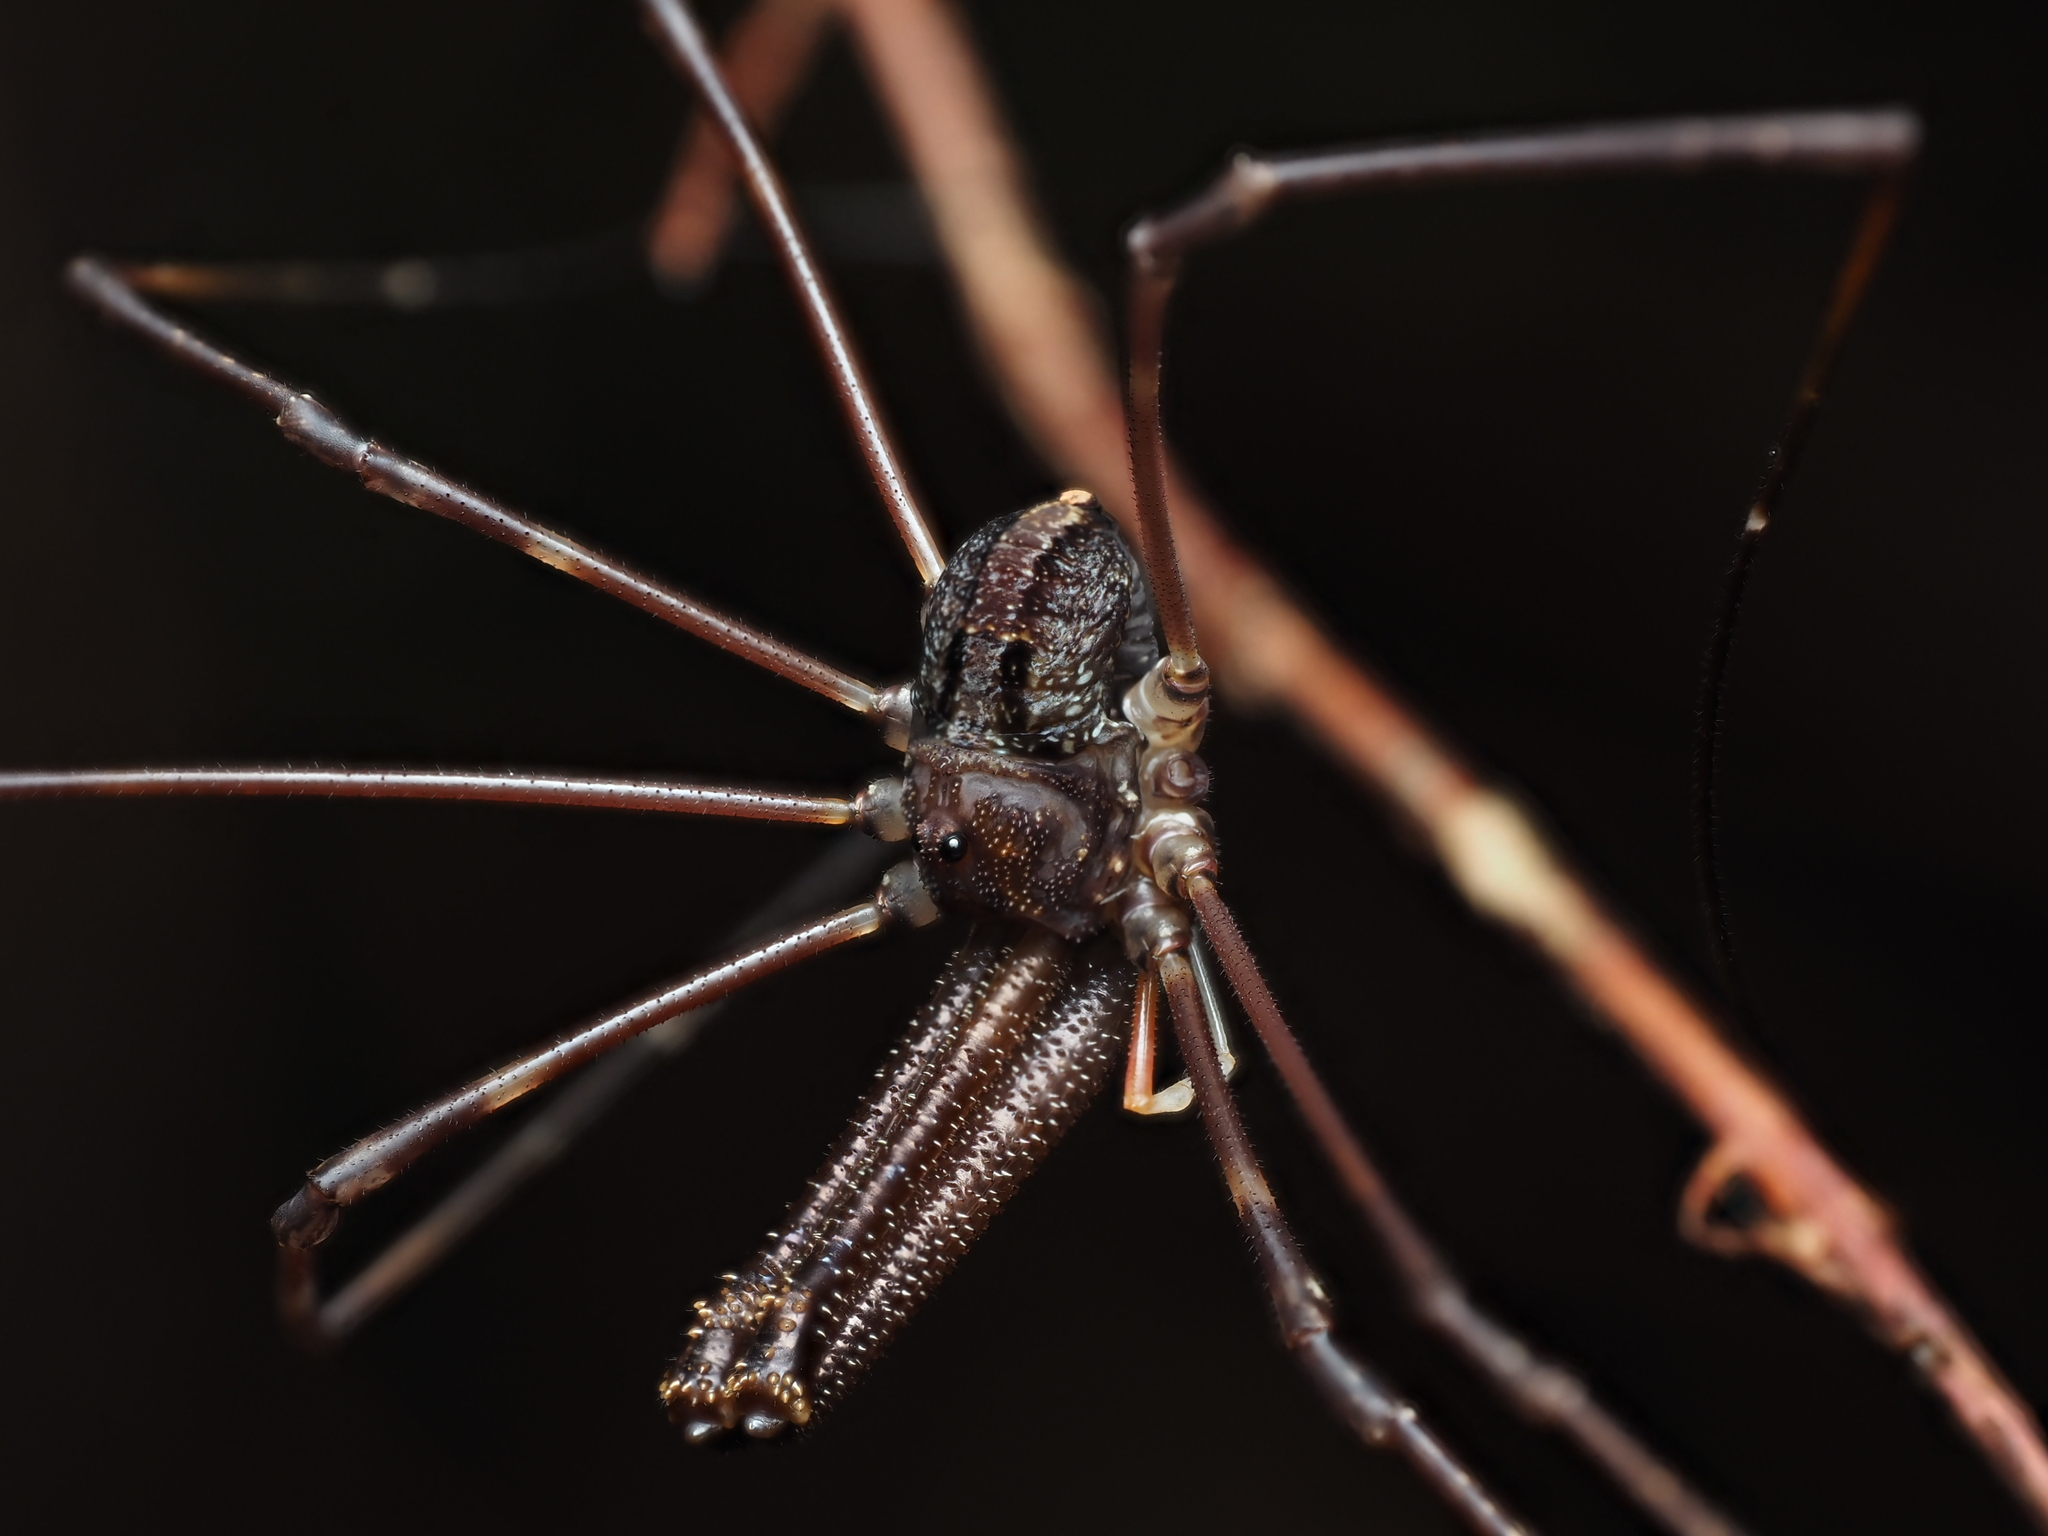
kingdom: Animalia
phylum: Arthropoda
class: Arachnida
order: Opiliones
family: Neopilionidae
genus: Forsteropsalis
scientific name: Forsteropsalis inconstans
